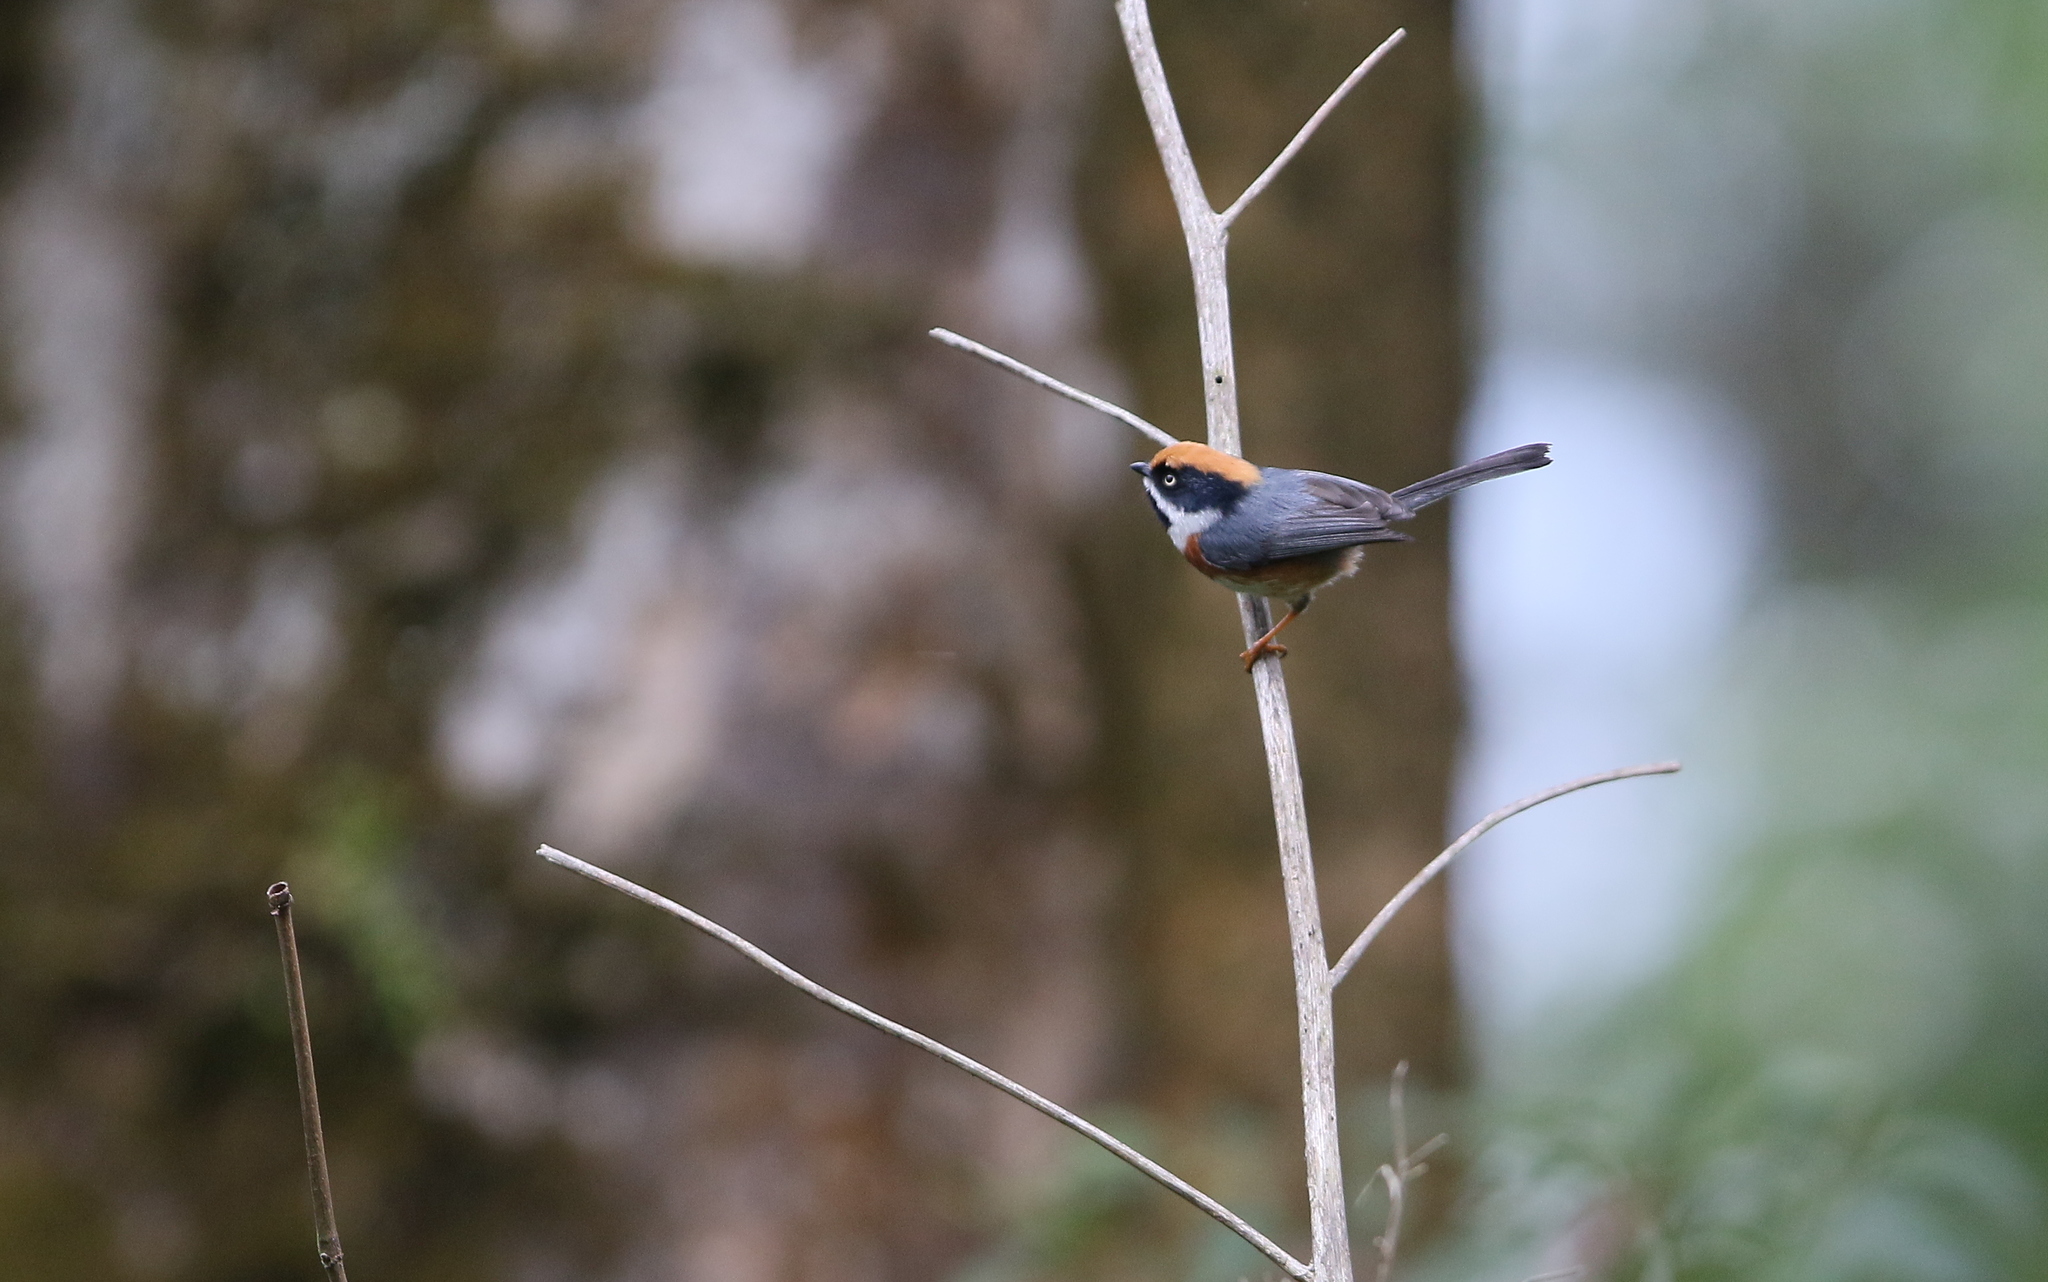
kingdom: Animalia
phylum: Chordata
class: Aves
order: Passeriformes
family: Aegithalidae
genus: Aegithalos
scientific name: Aegithalos concinnus
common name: Black-throated bushtit
